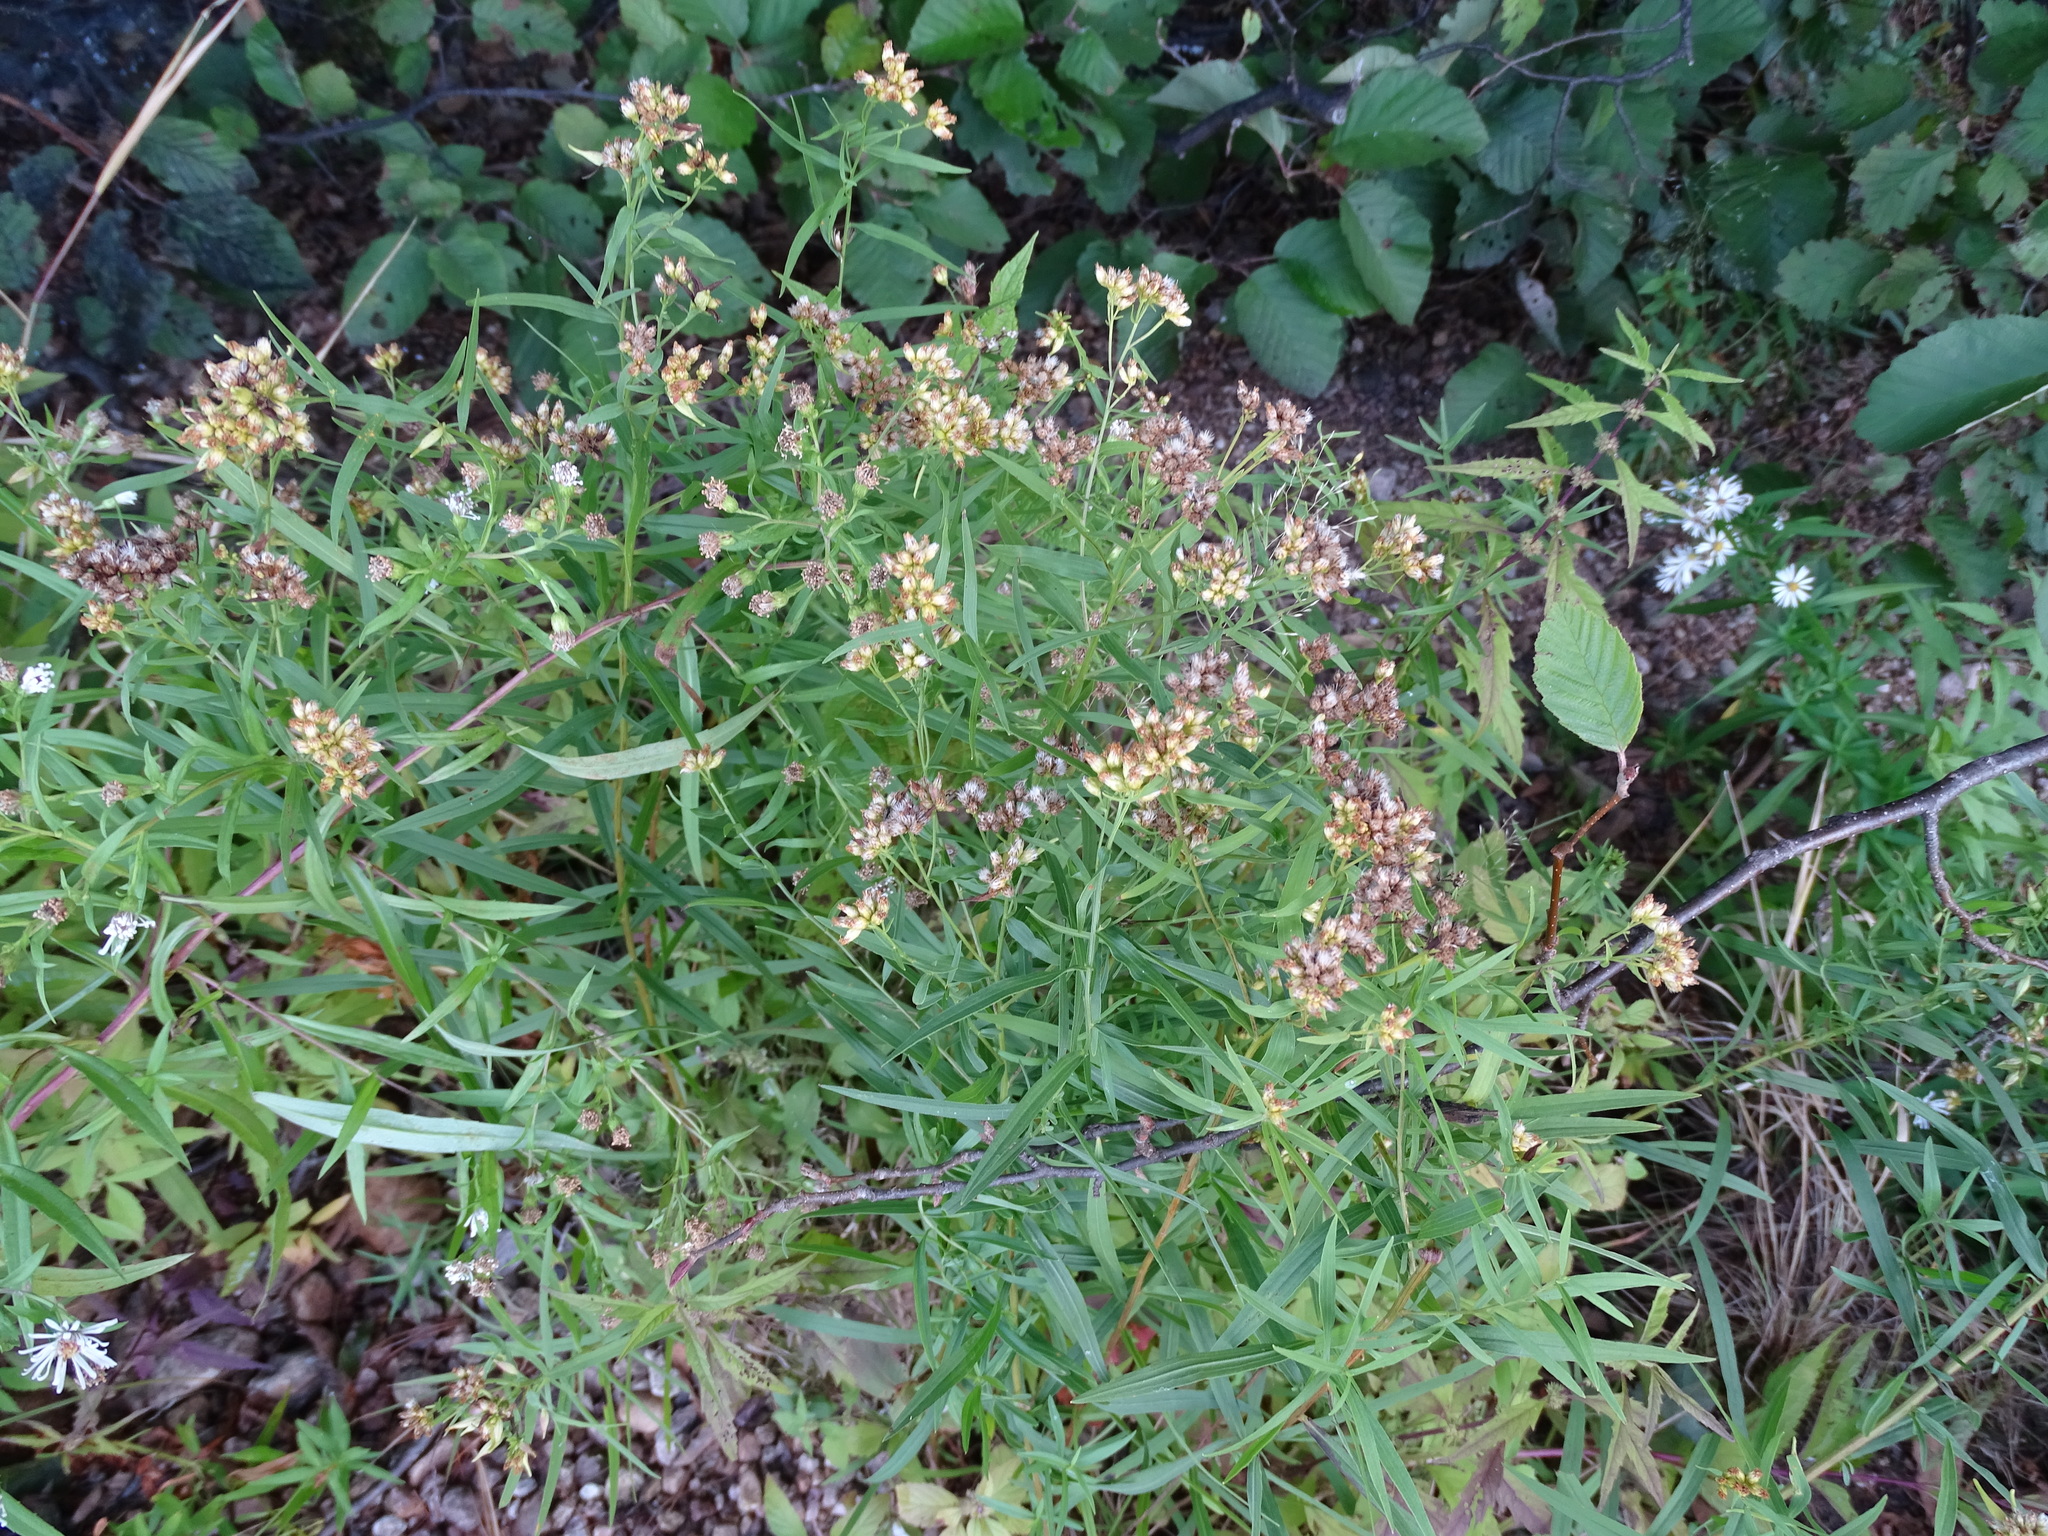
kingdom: Plantae
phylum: Tracheophyta
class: Magnoliopsida
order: Asterales
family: Asteraceae
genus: Euthamia
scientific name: Euthamia graminifolia
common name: Common goldentop
